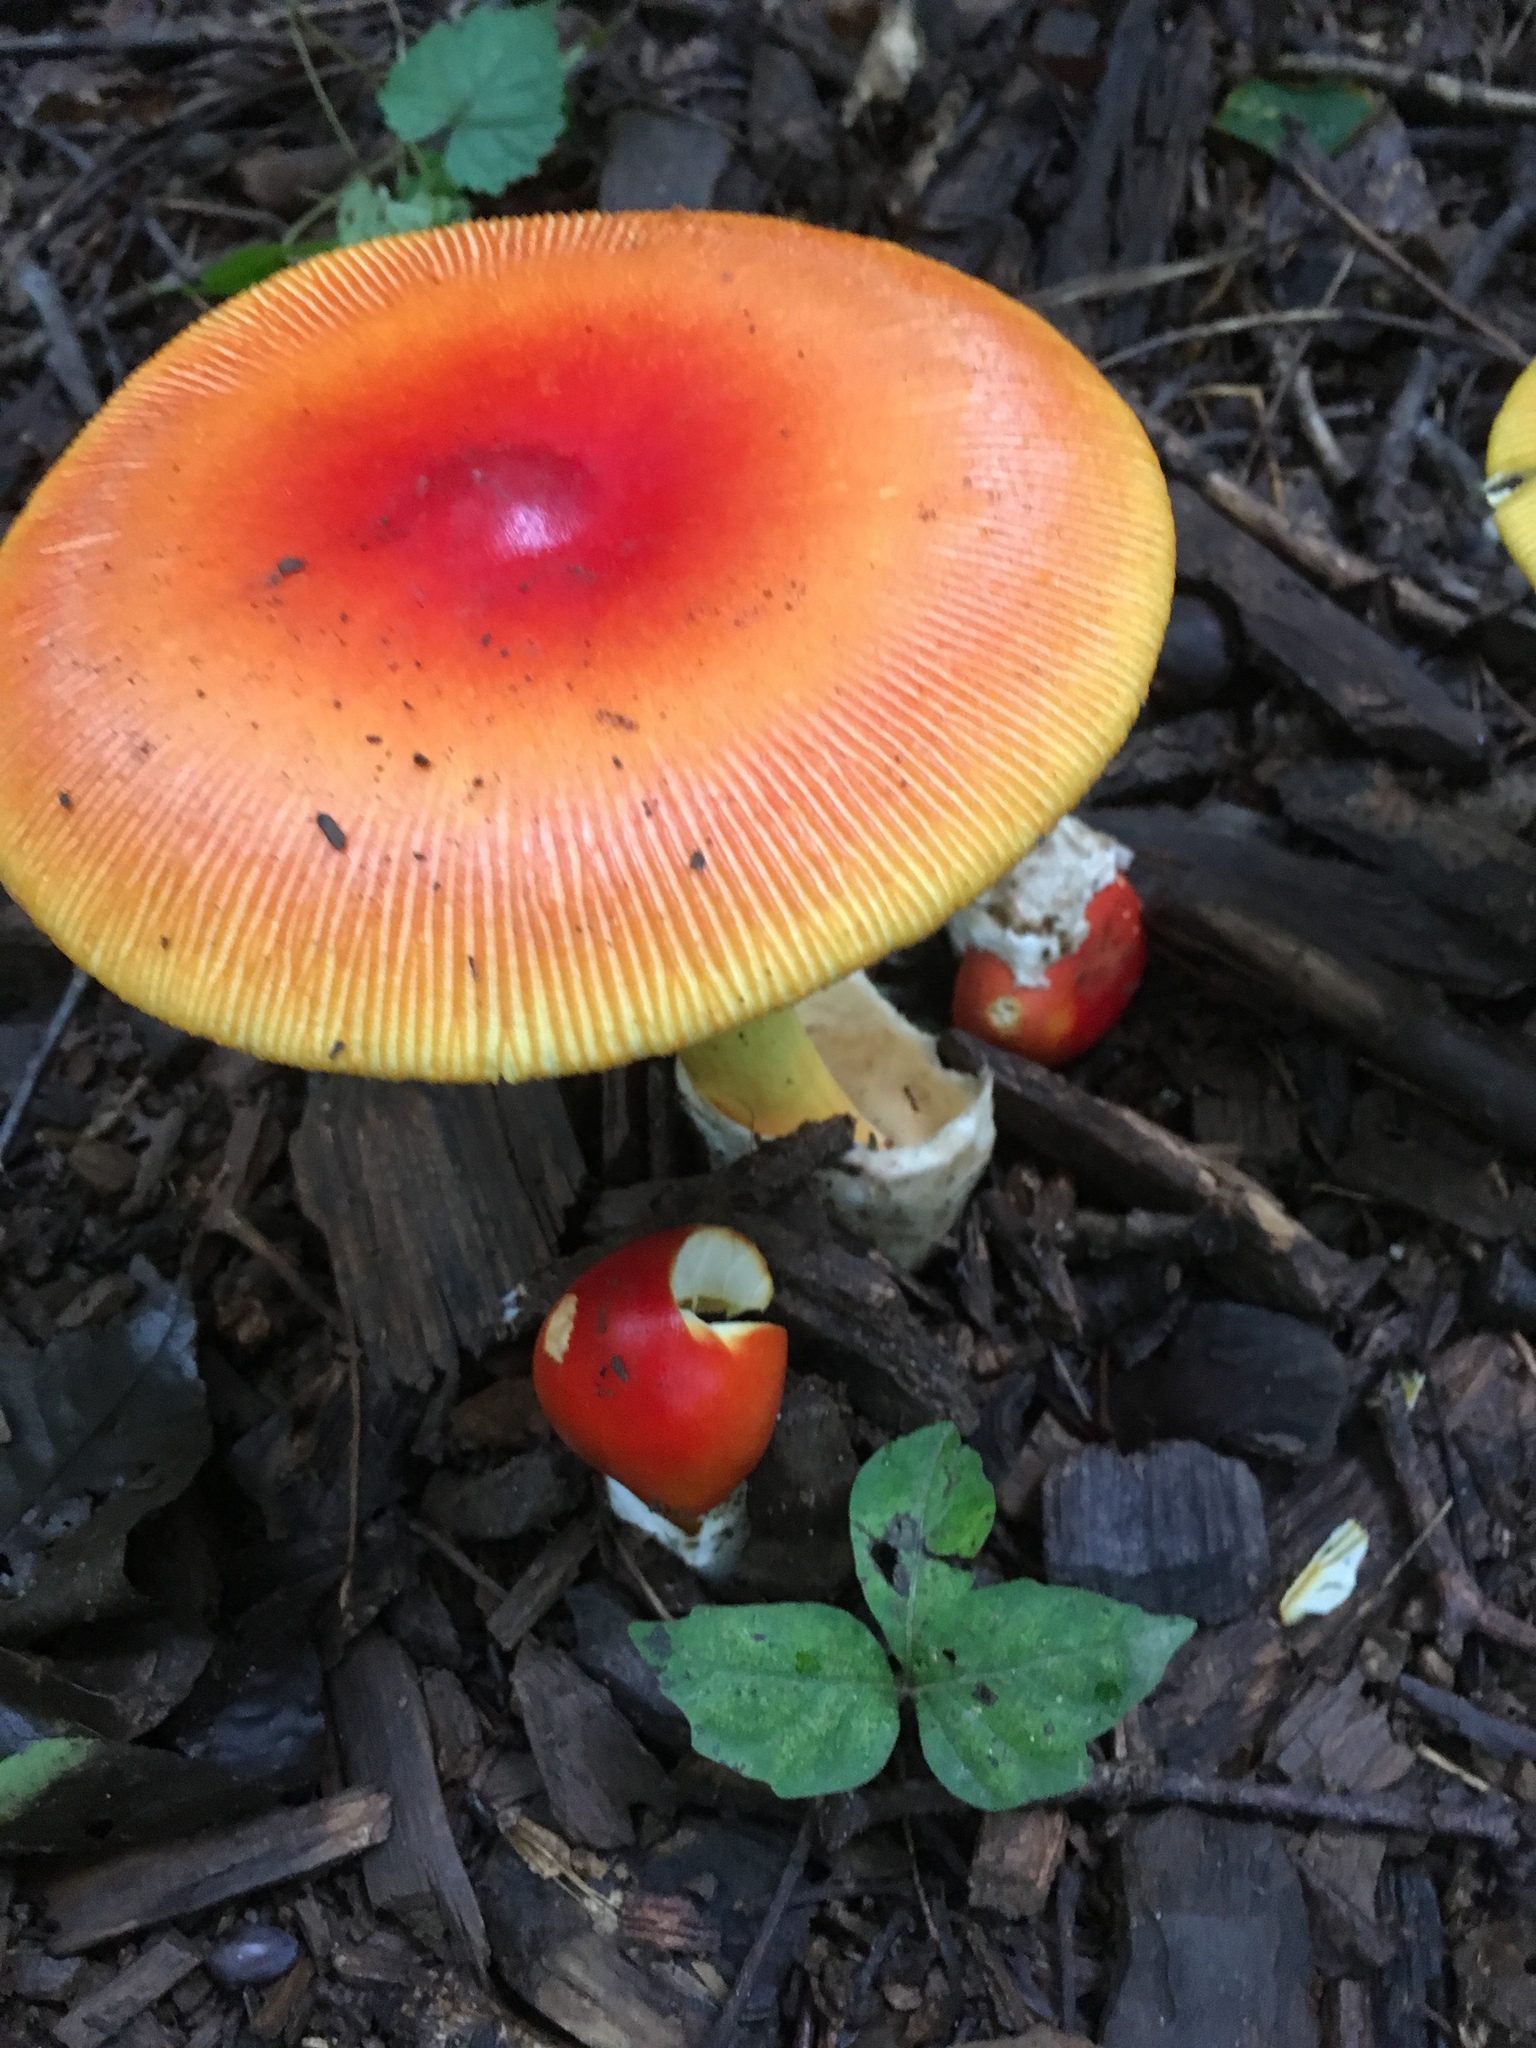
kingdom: Fungi
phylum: Basidiomycota
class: Agaricomycetes
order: Agaricales
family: Amanitaceae
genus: Amanita
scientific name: Amanita jacksonii
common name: Jackson's slender caesar
